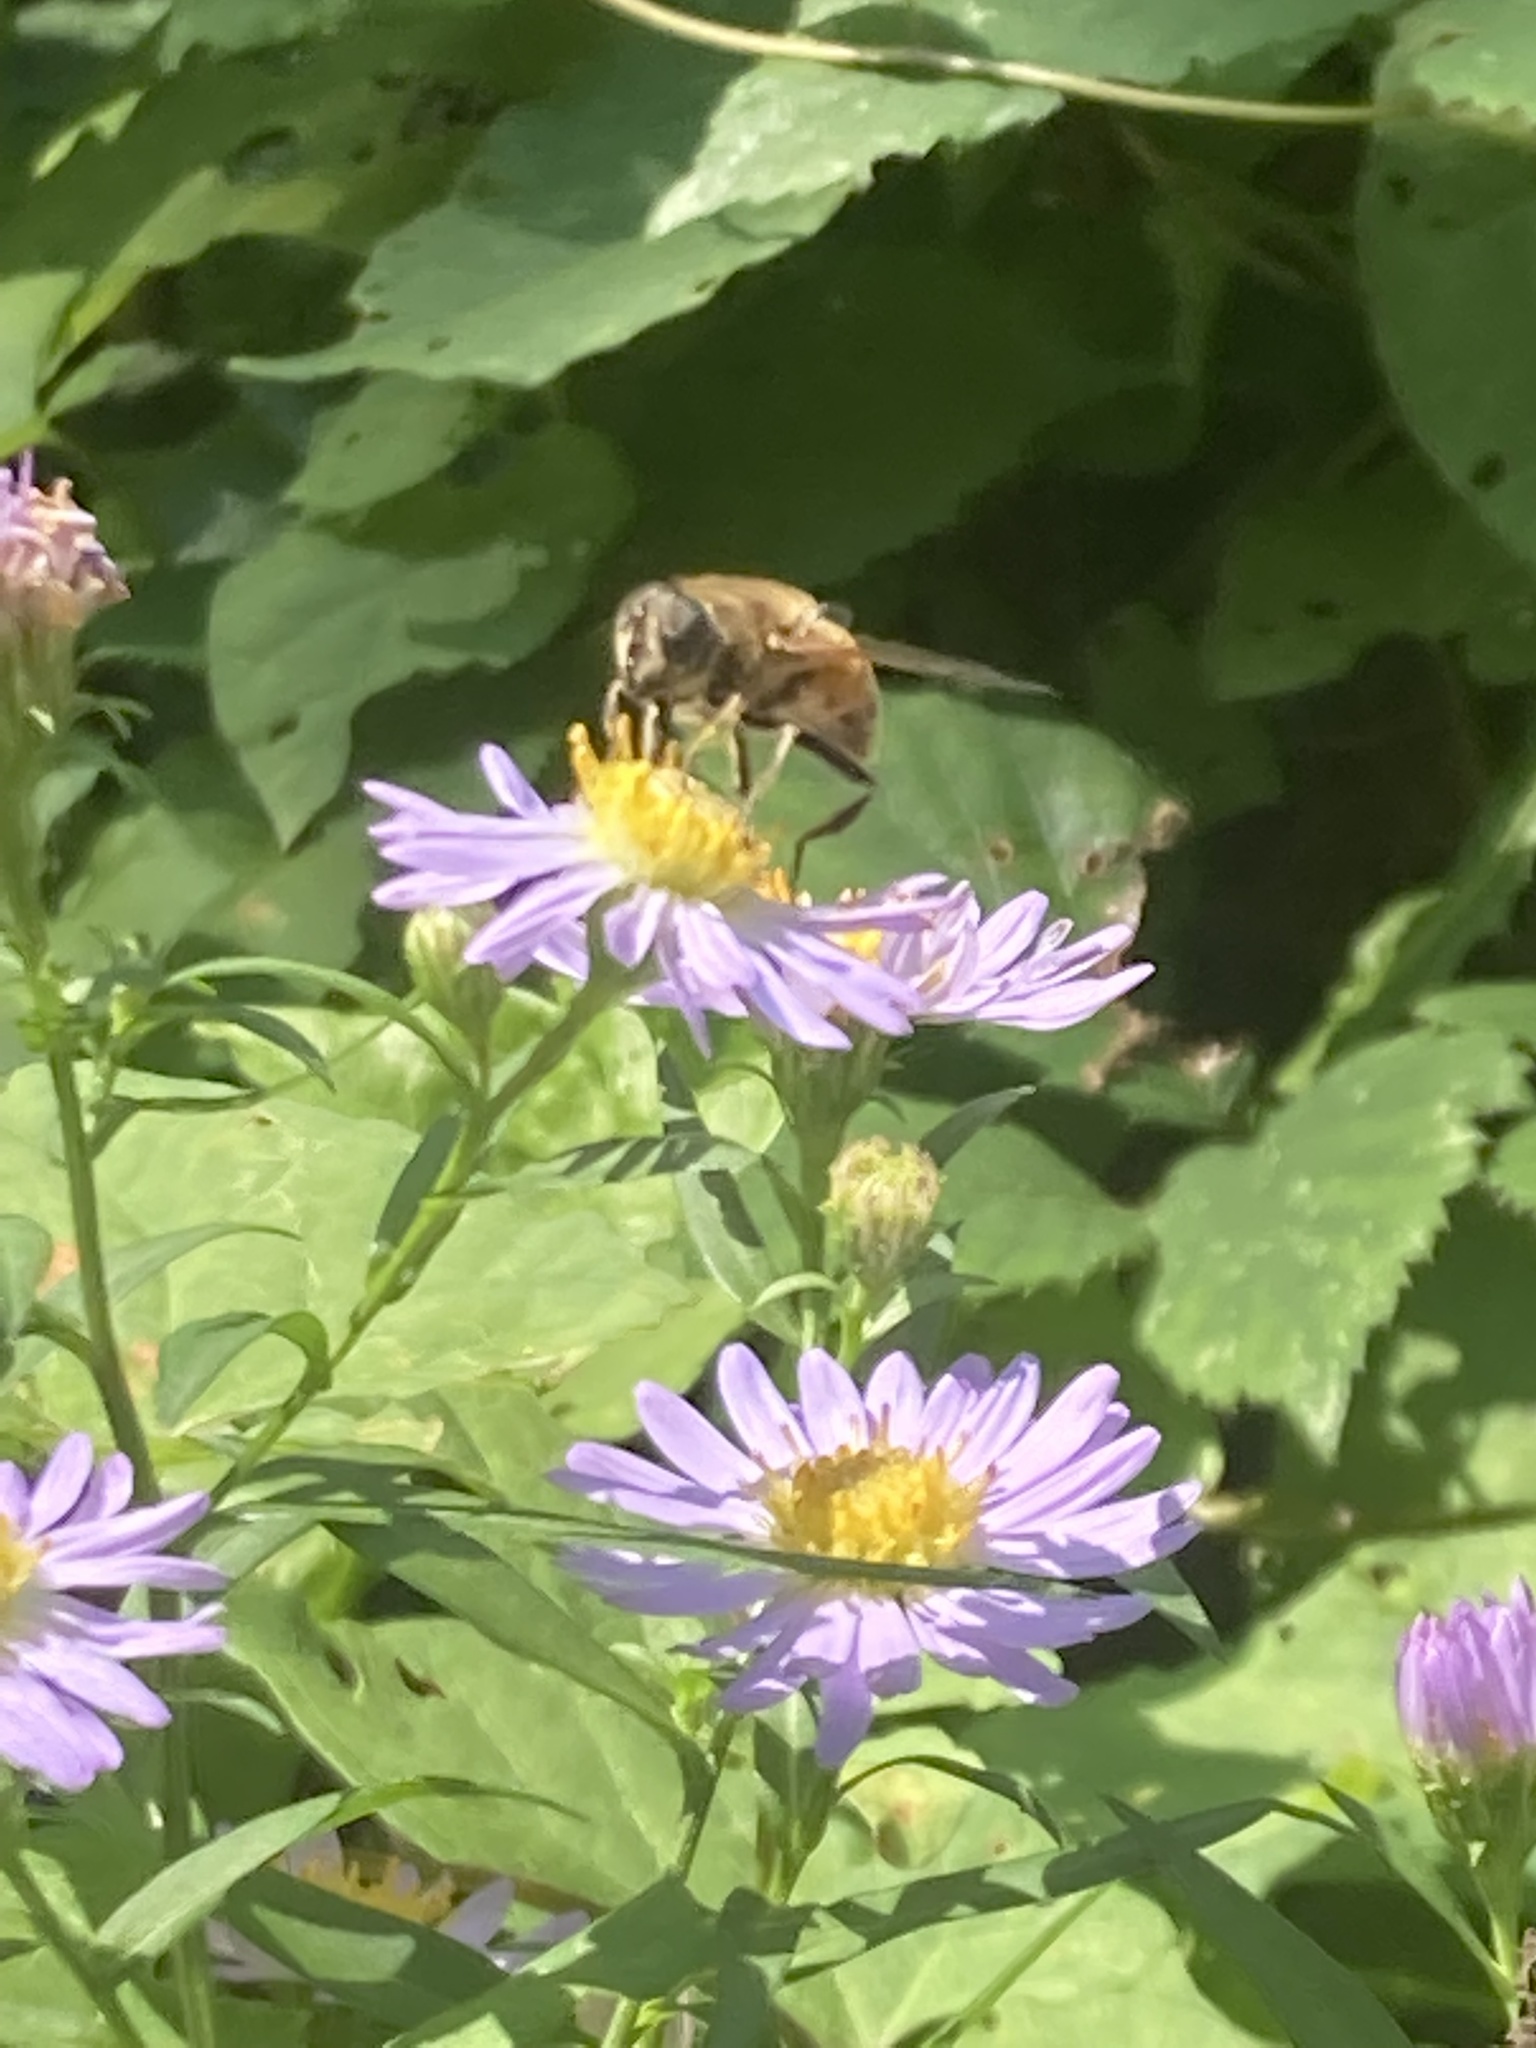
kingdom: Animalia
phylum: Arthropoda
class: Insecta
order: Diptera
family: Syrphidae
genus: Eristalis
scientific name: Eristalis tenax
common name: Drone fly
